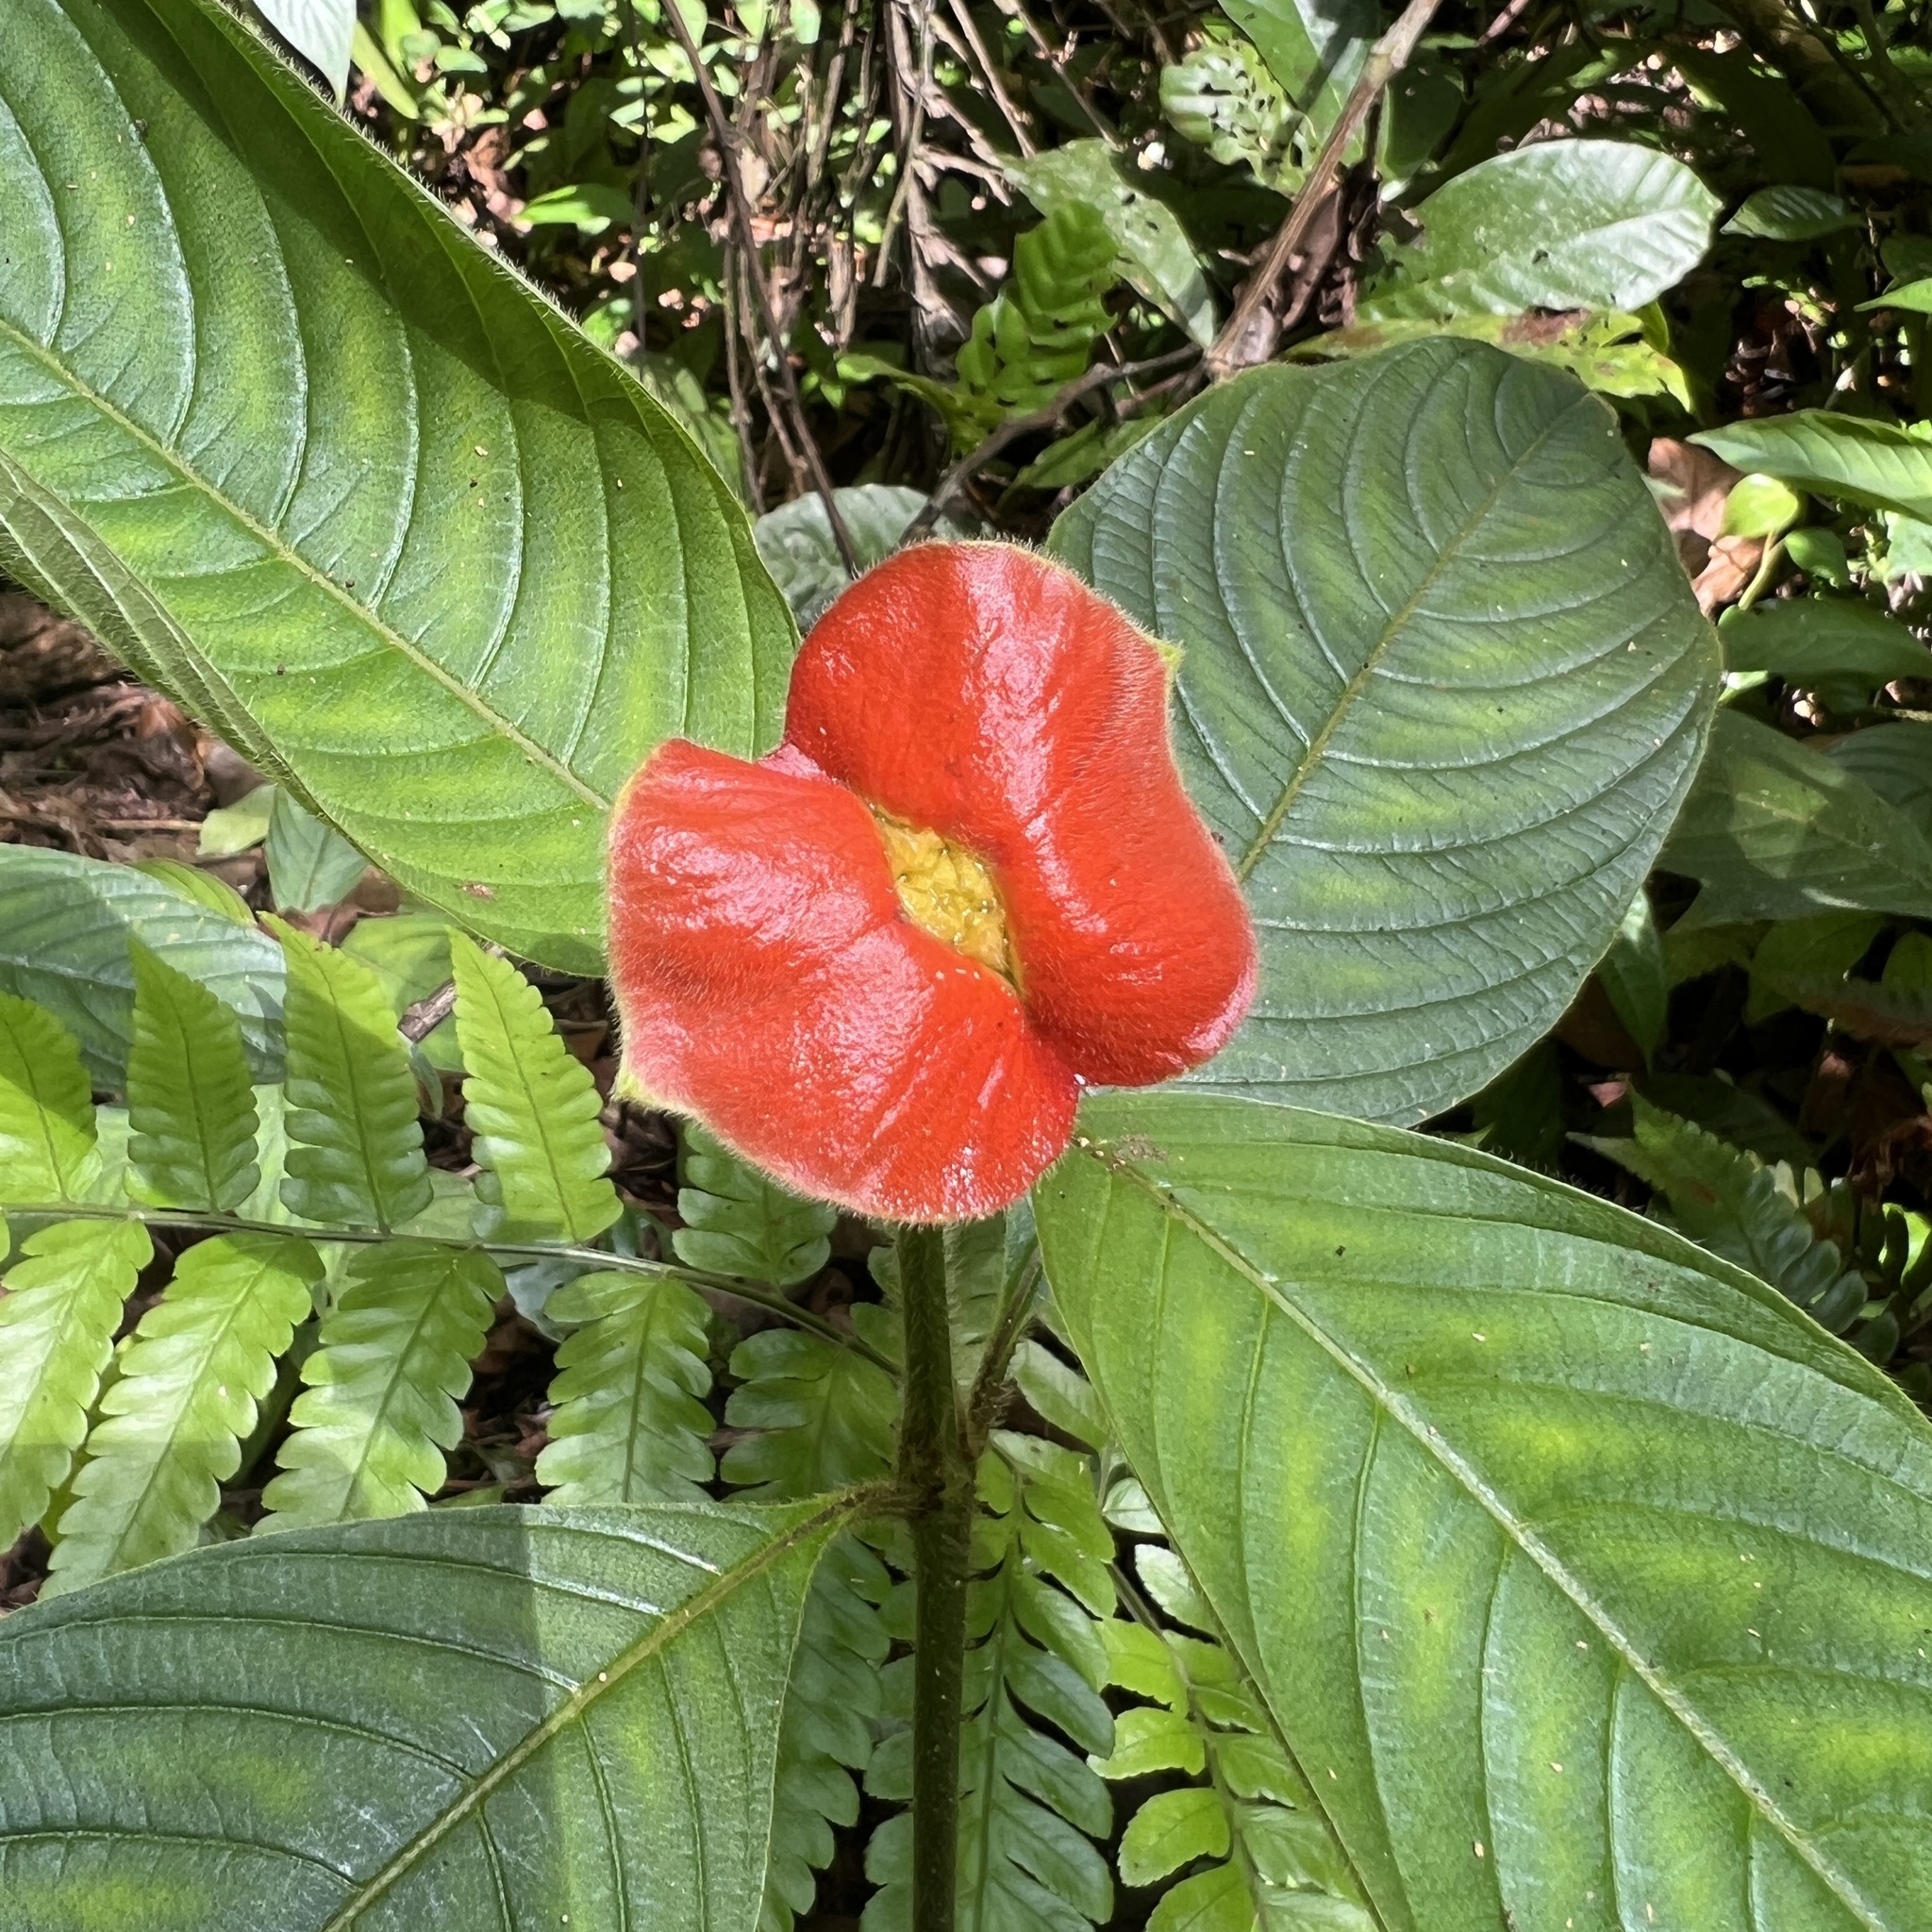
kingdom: Plantae
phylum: Tracheophyta
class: Magnoliopsida
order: Gentianales
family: Rubiaceae
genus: Palicourea
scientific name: Palicourea tomentosa
